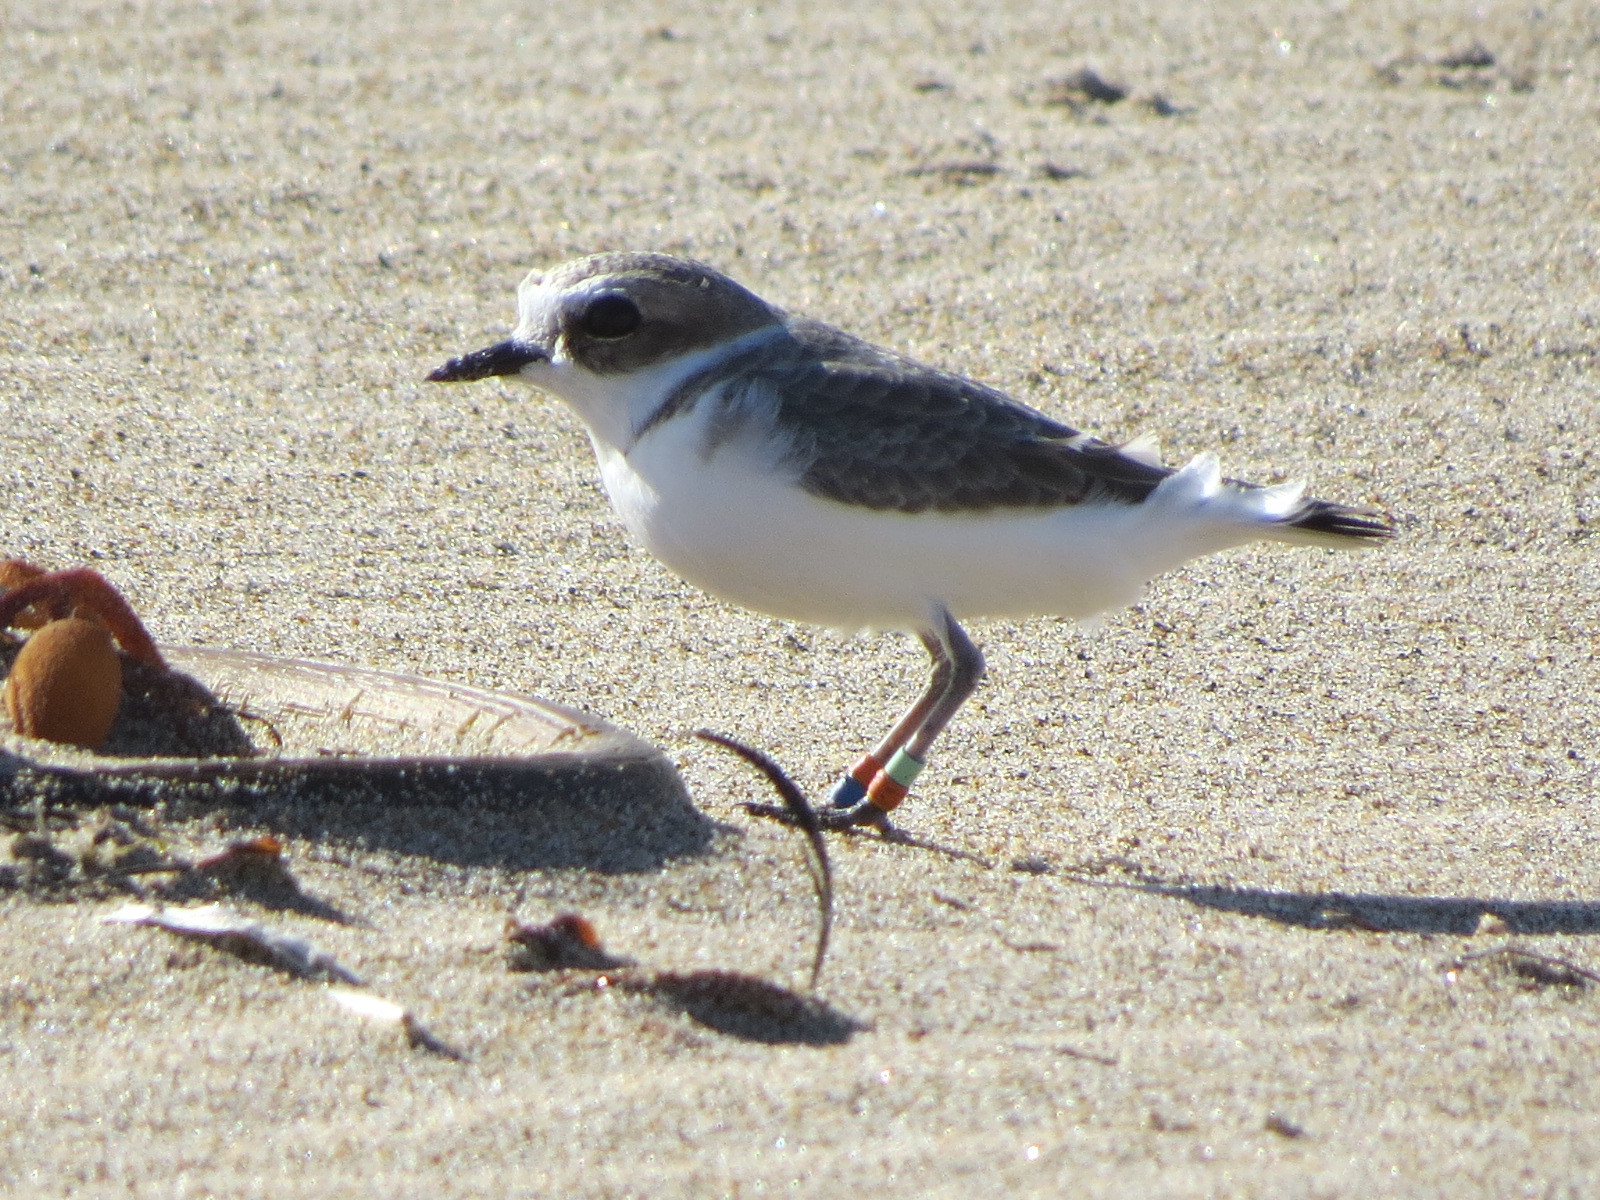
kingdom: Animalia
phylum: Chordata
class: Aves
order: Charadriiformes
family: Charadriidae
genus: Anarhynchus
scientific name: Anarhynchus
